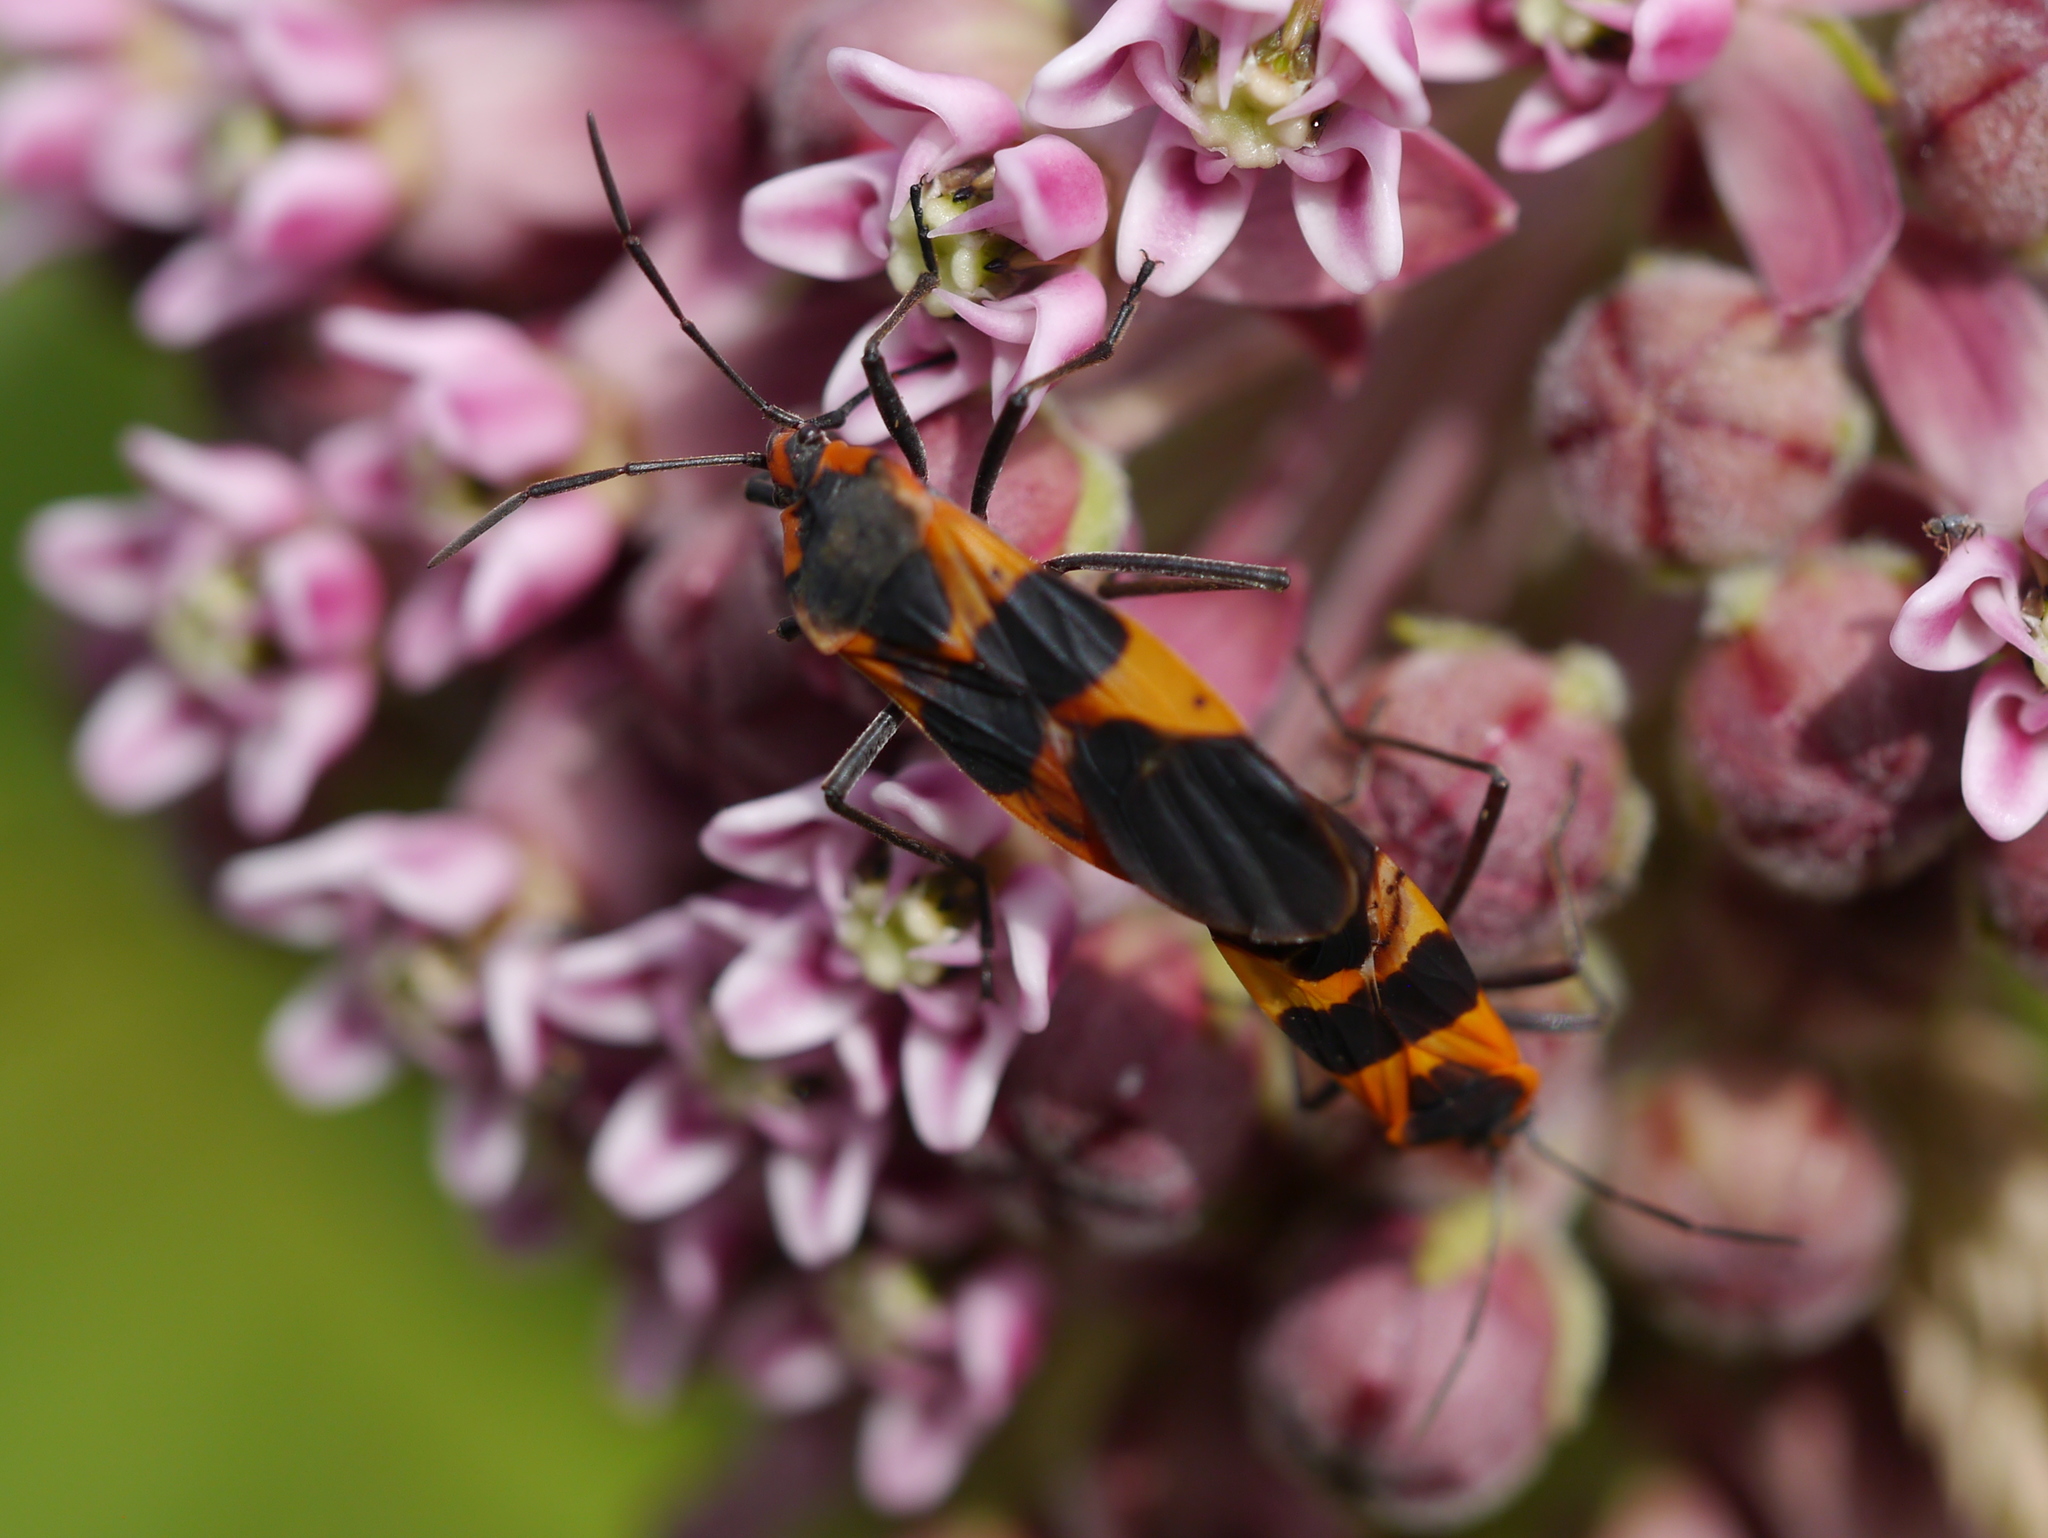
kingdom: Animalia
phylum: Arthropoda
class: Insecta
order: Hemiptera
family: Lygaeidae
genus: Oncopeltus
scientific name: Oncopeltus fasciatus
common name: Large milkweed bug
